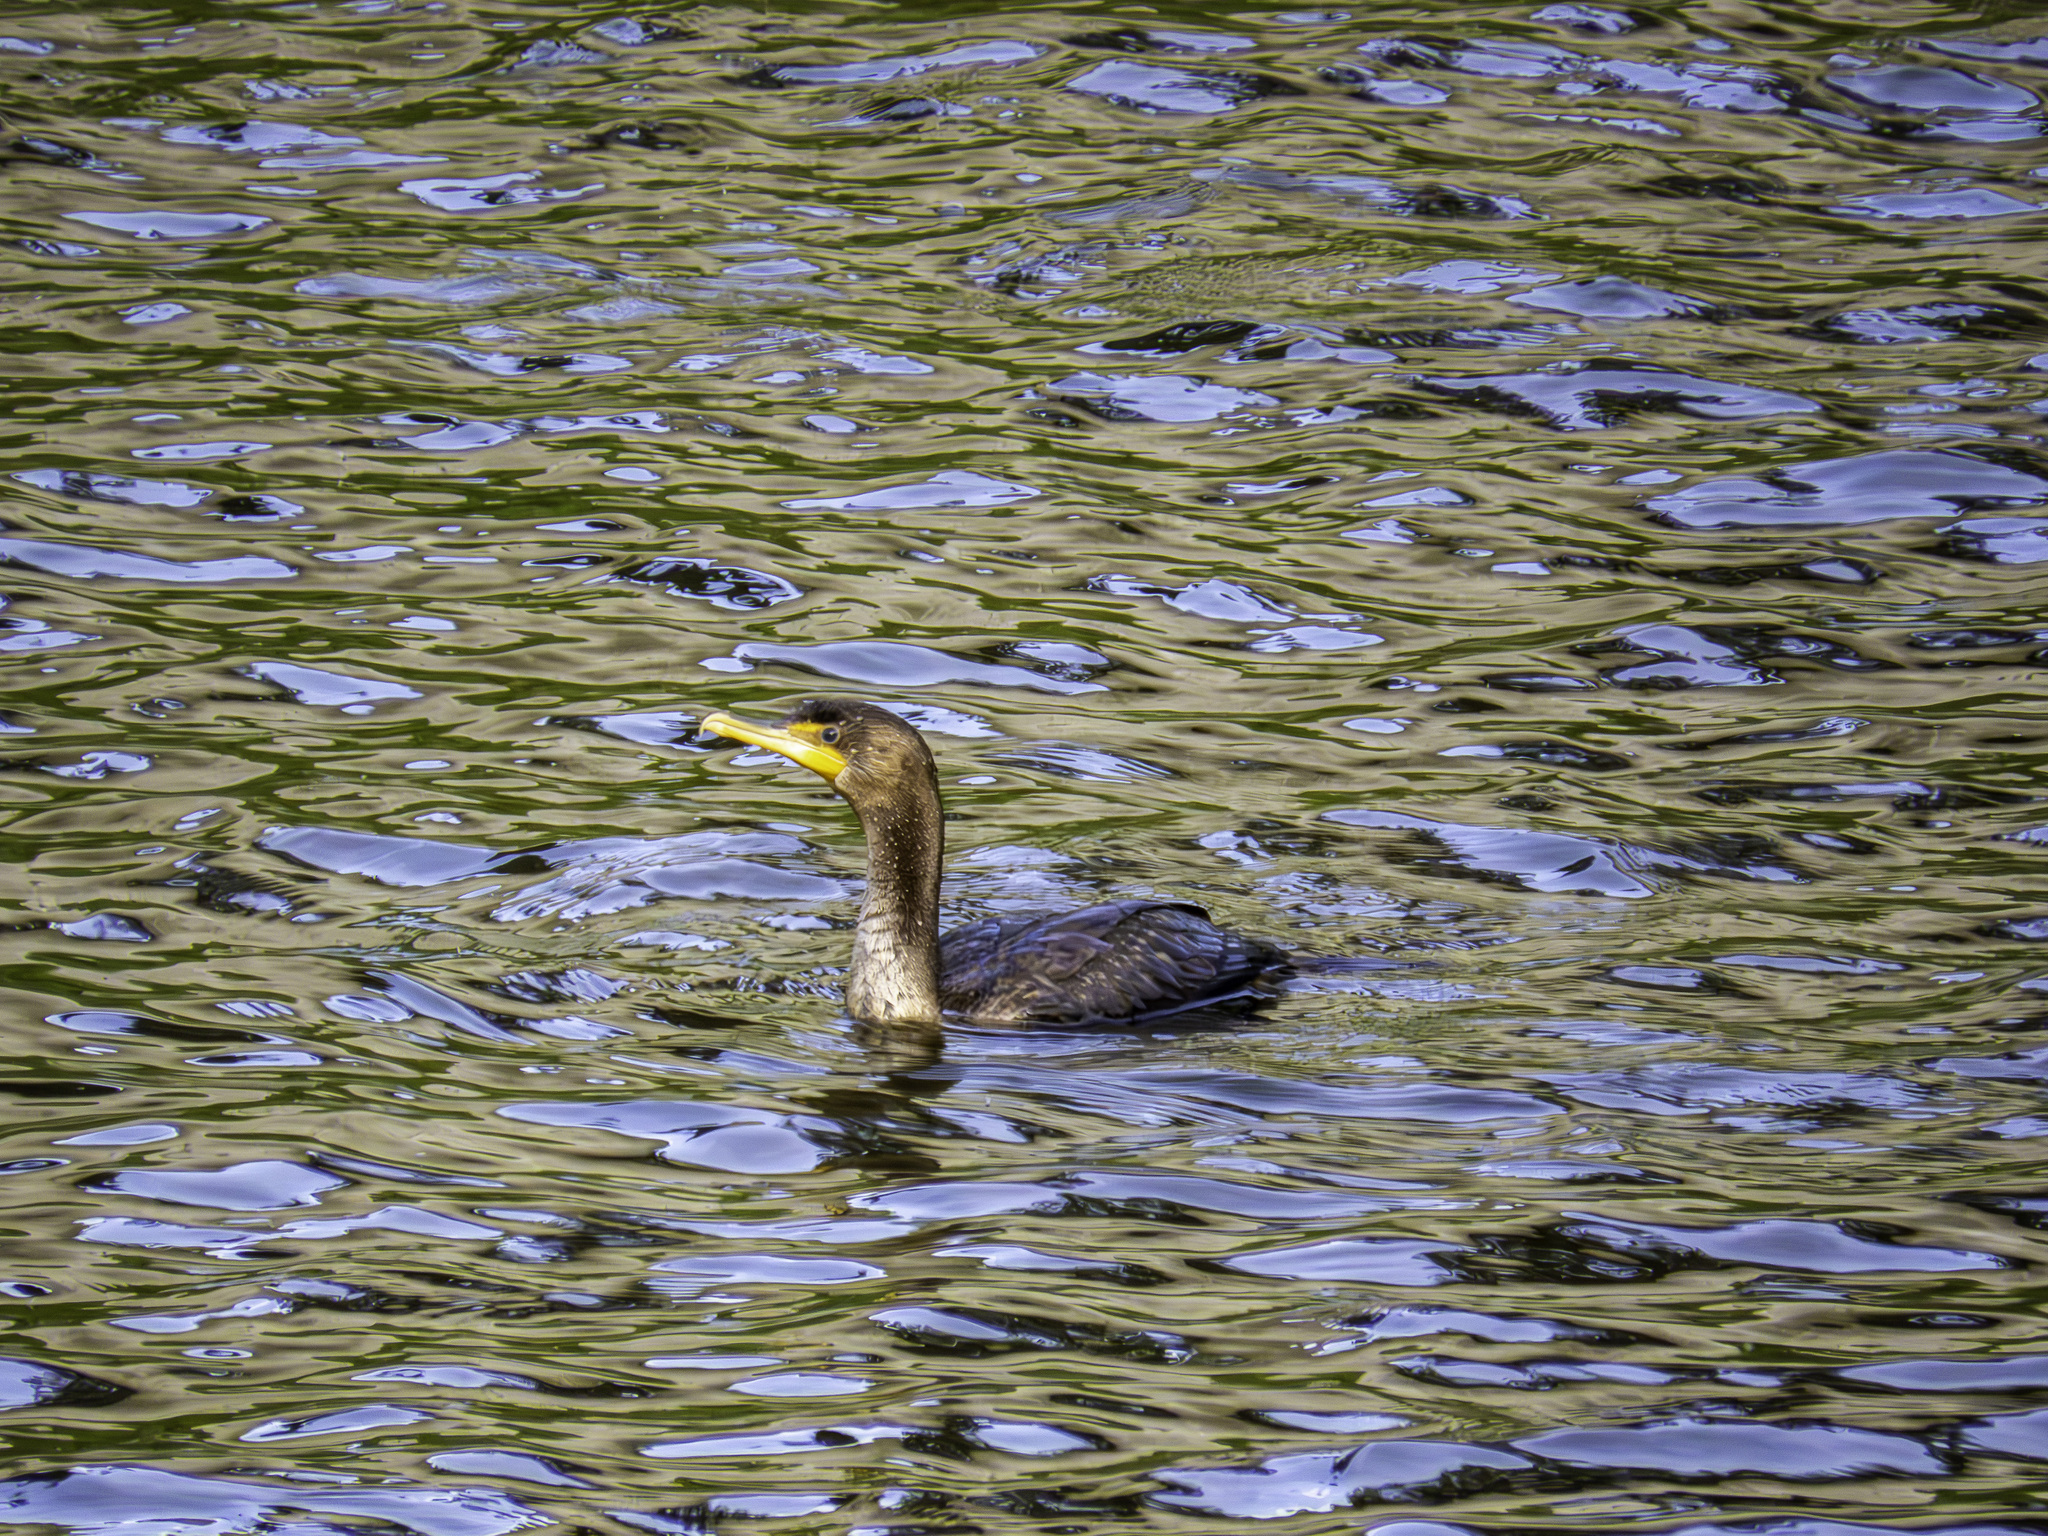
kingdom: Animalia
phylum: Chordata
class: Aves
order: Suliformes
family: Phalacrocoracidae
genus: Phalacrocorax
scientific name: Phalacrocorax auritus
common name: Double-crested cormorant
